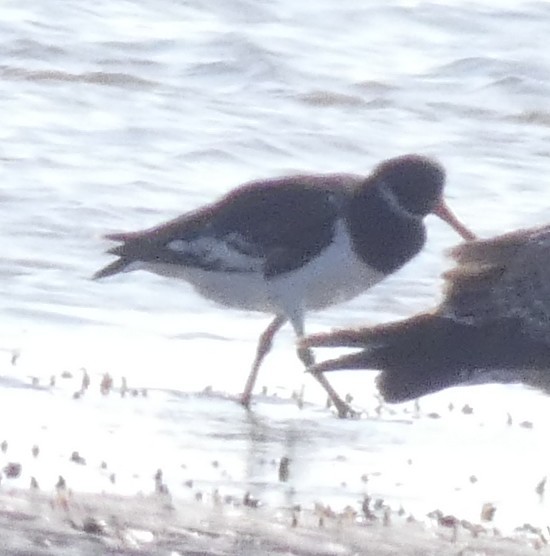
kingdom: Animalia
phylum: Chordata
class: Aves
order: Charadriiformes
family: Haematopodidae
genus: Haematopus
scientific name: Haematopus ostralegus
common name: Eurasian oystercatcher
